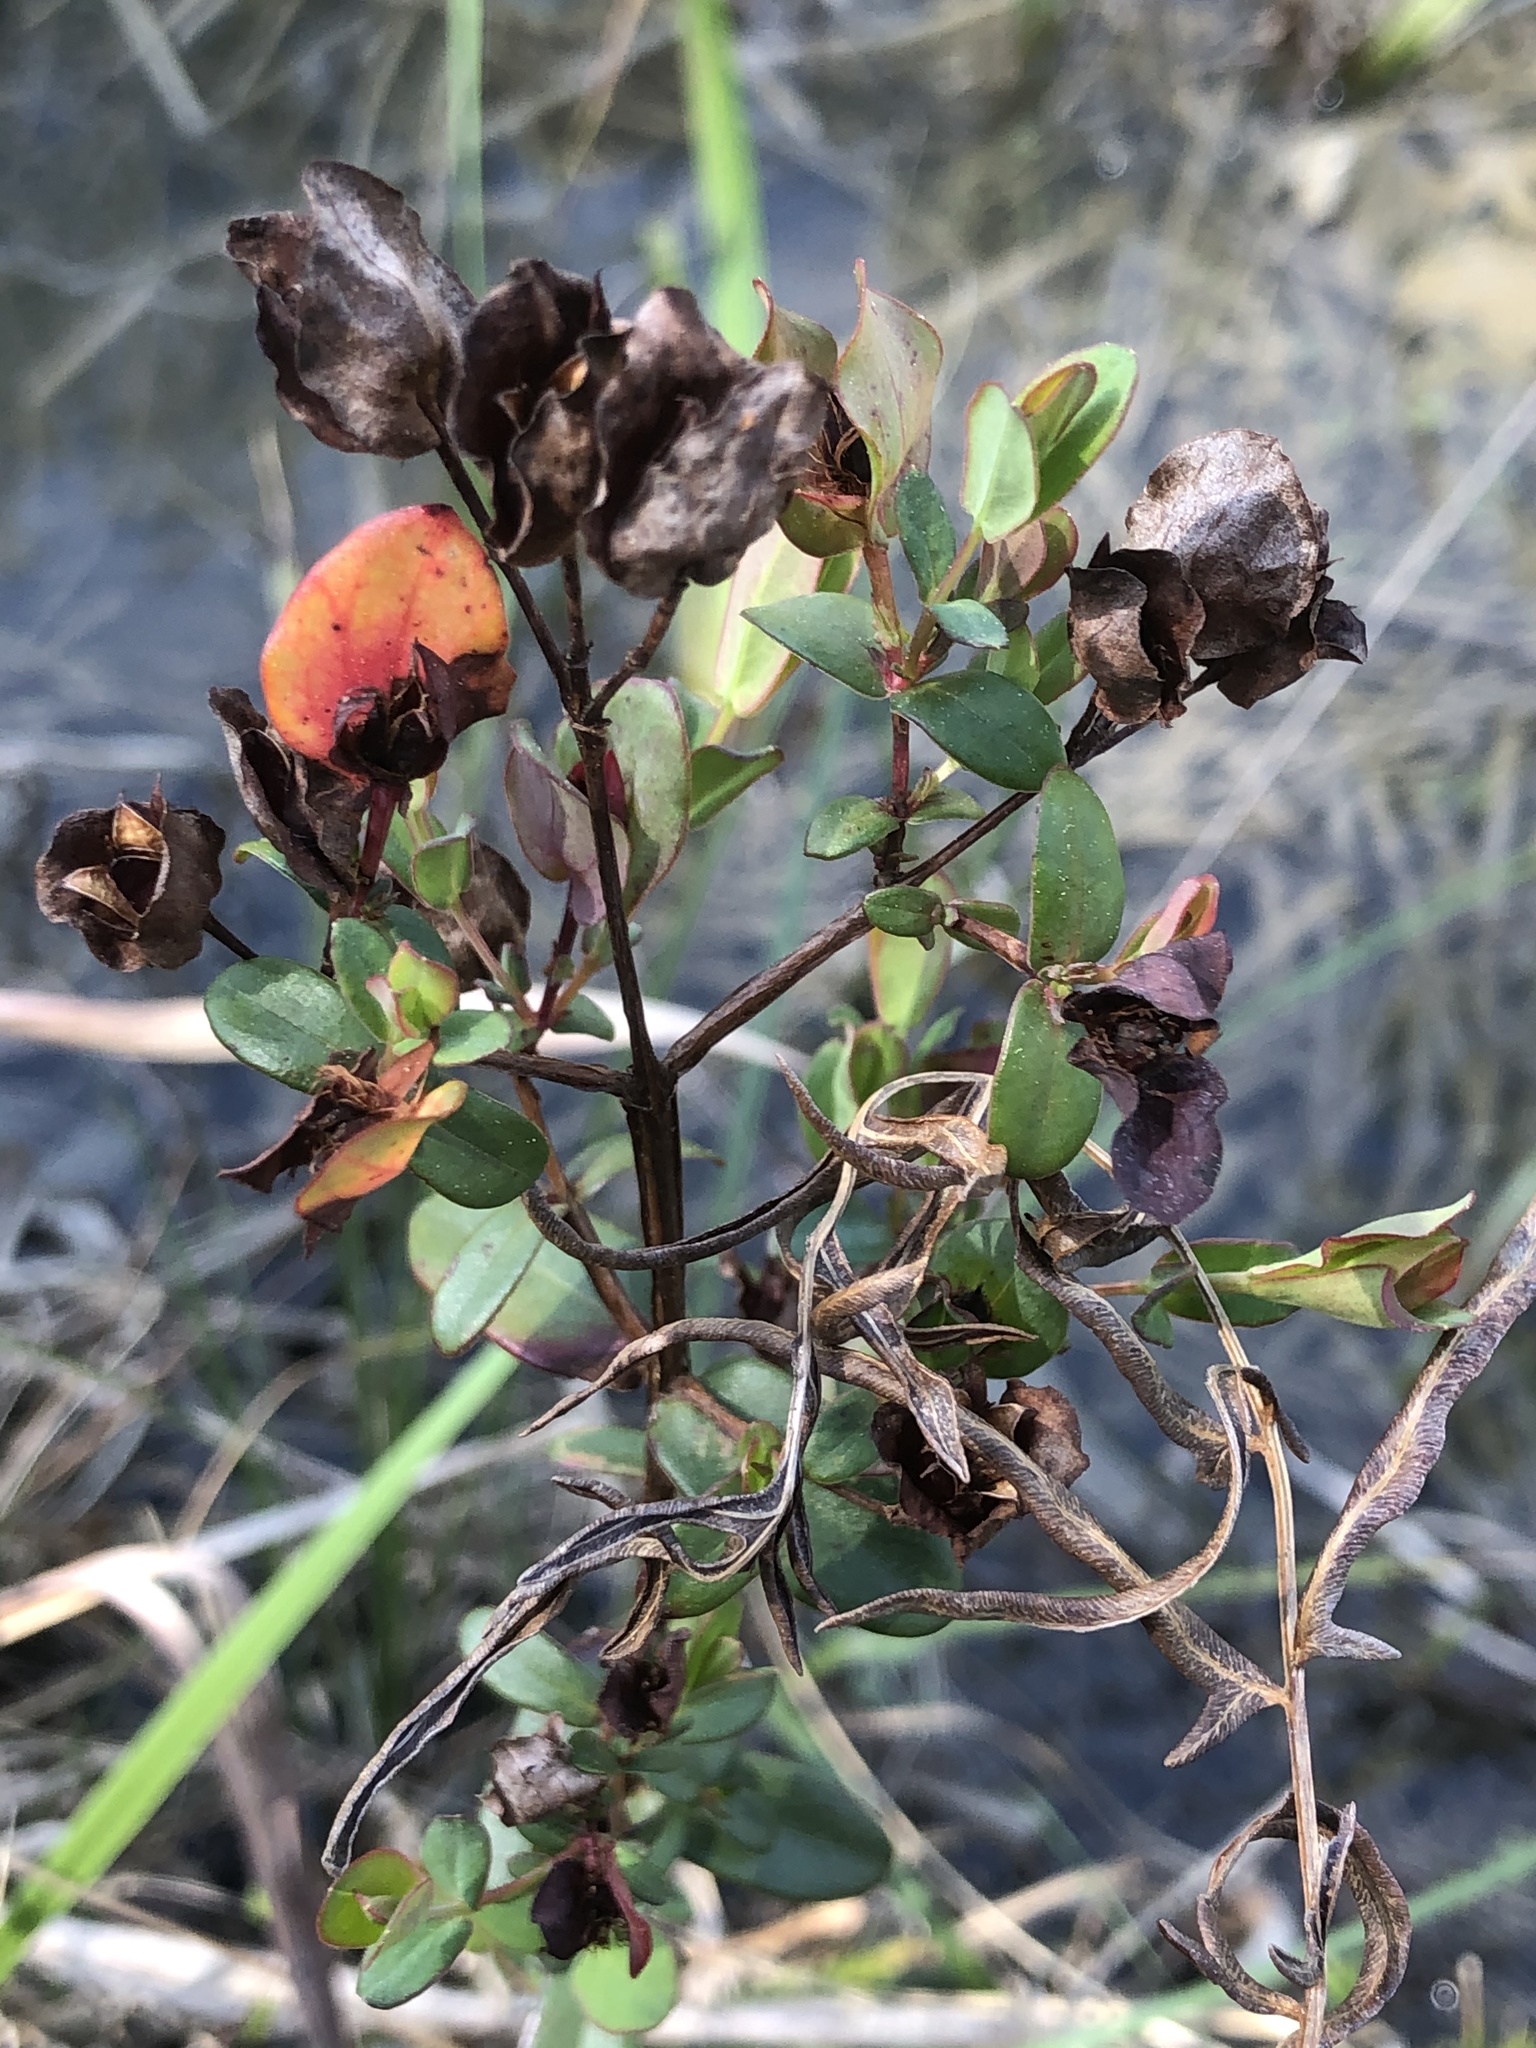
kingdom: Plantae
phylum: Tracheophyta
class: Magnoliopsida
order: Malpighiales
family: Hypericaceae
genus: Hypericum
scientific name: Hypericum crux-andreae
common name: St.-peter's-wort
